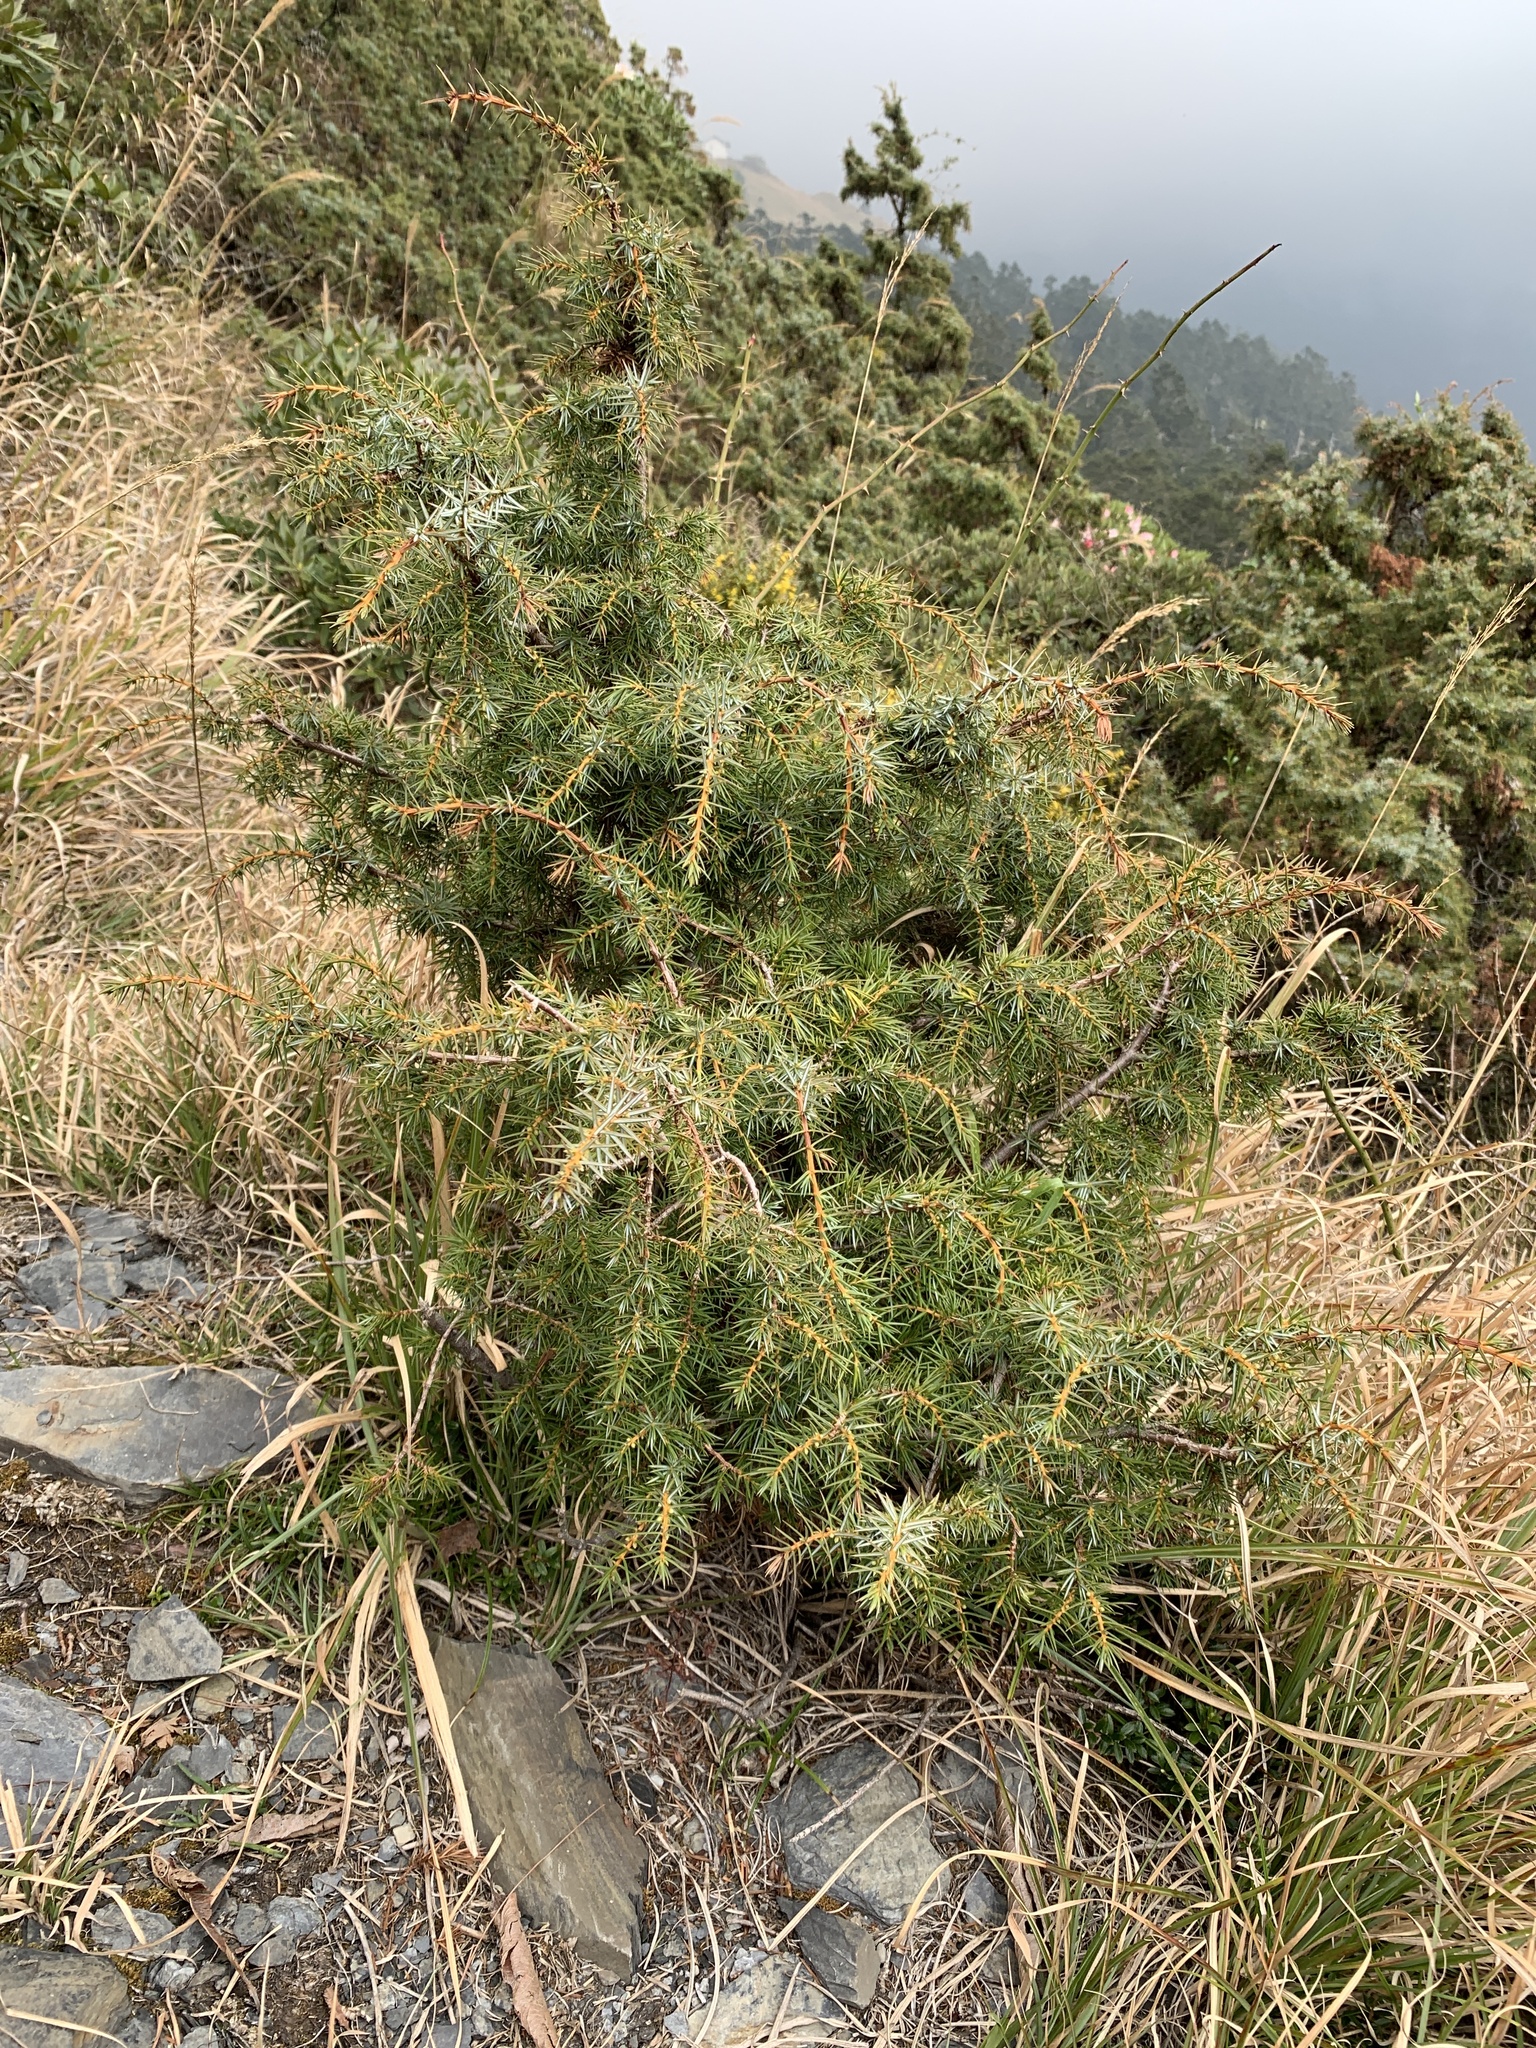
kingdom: Plantae
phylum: Tracheophyta
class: Pinopsida
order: Pinales
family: Cupressaceae
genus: Juniperus
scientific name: Juniperus formosana
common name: Formosan juniper
